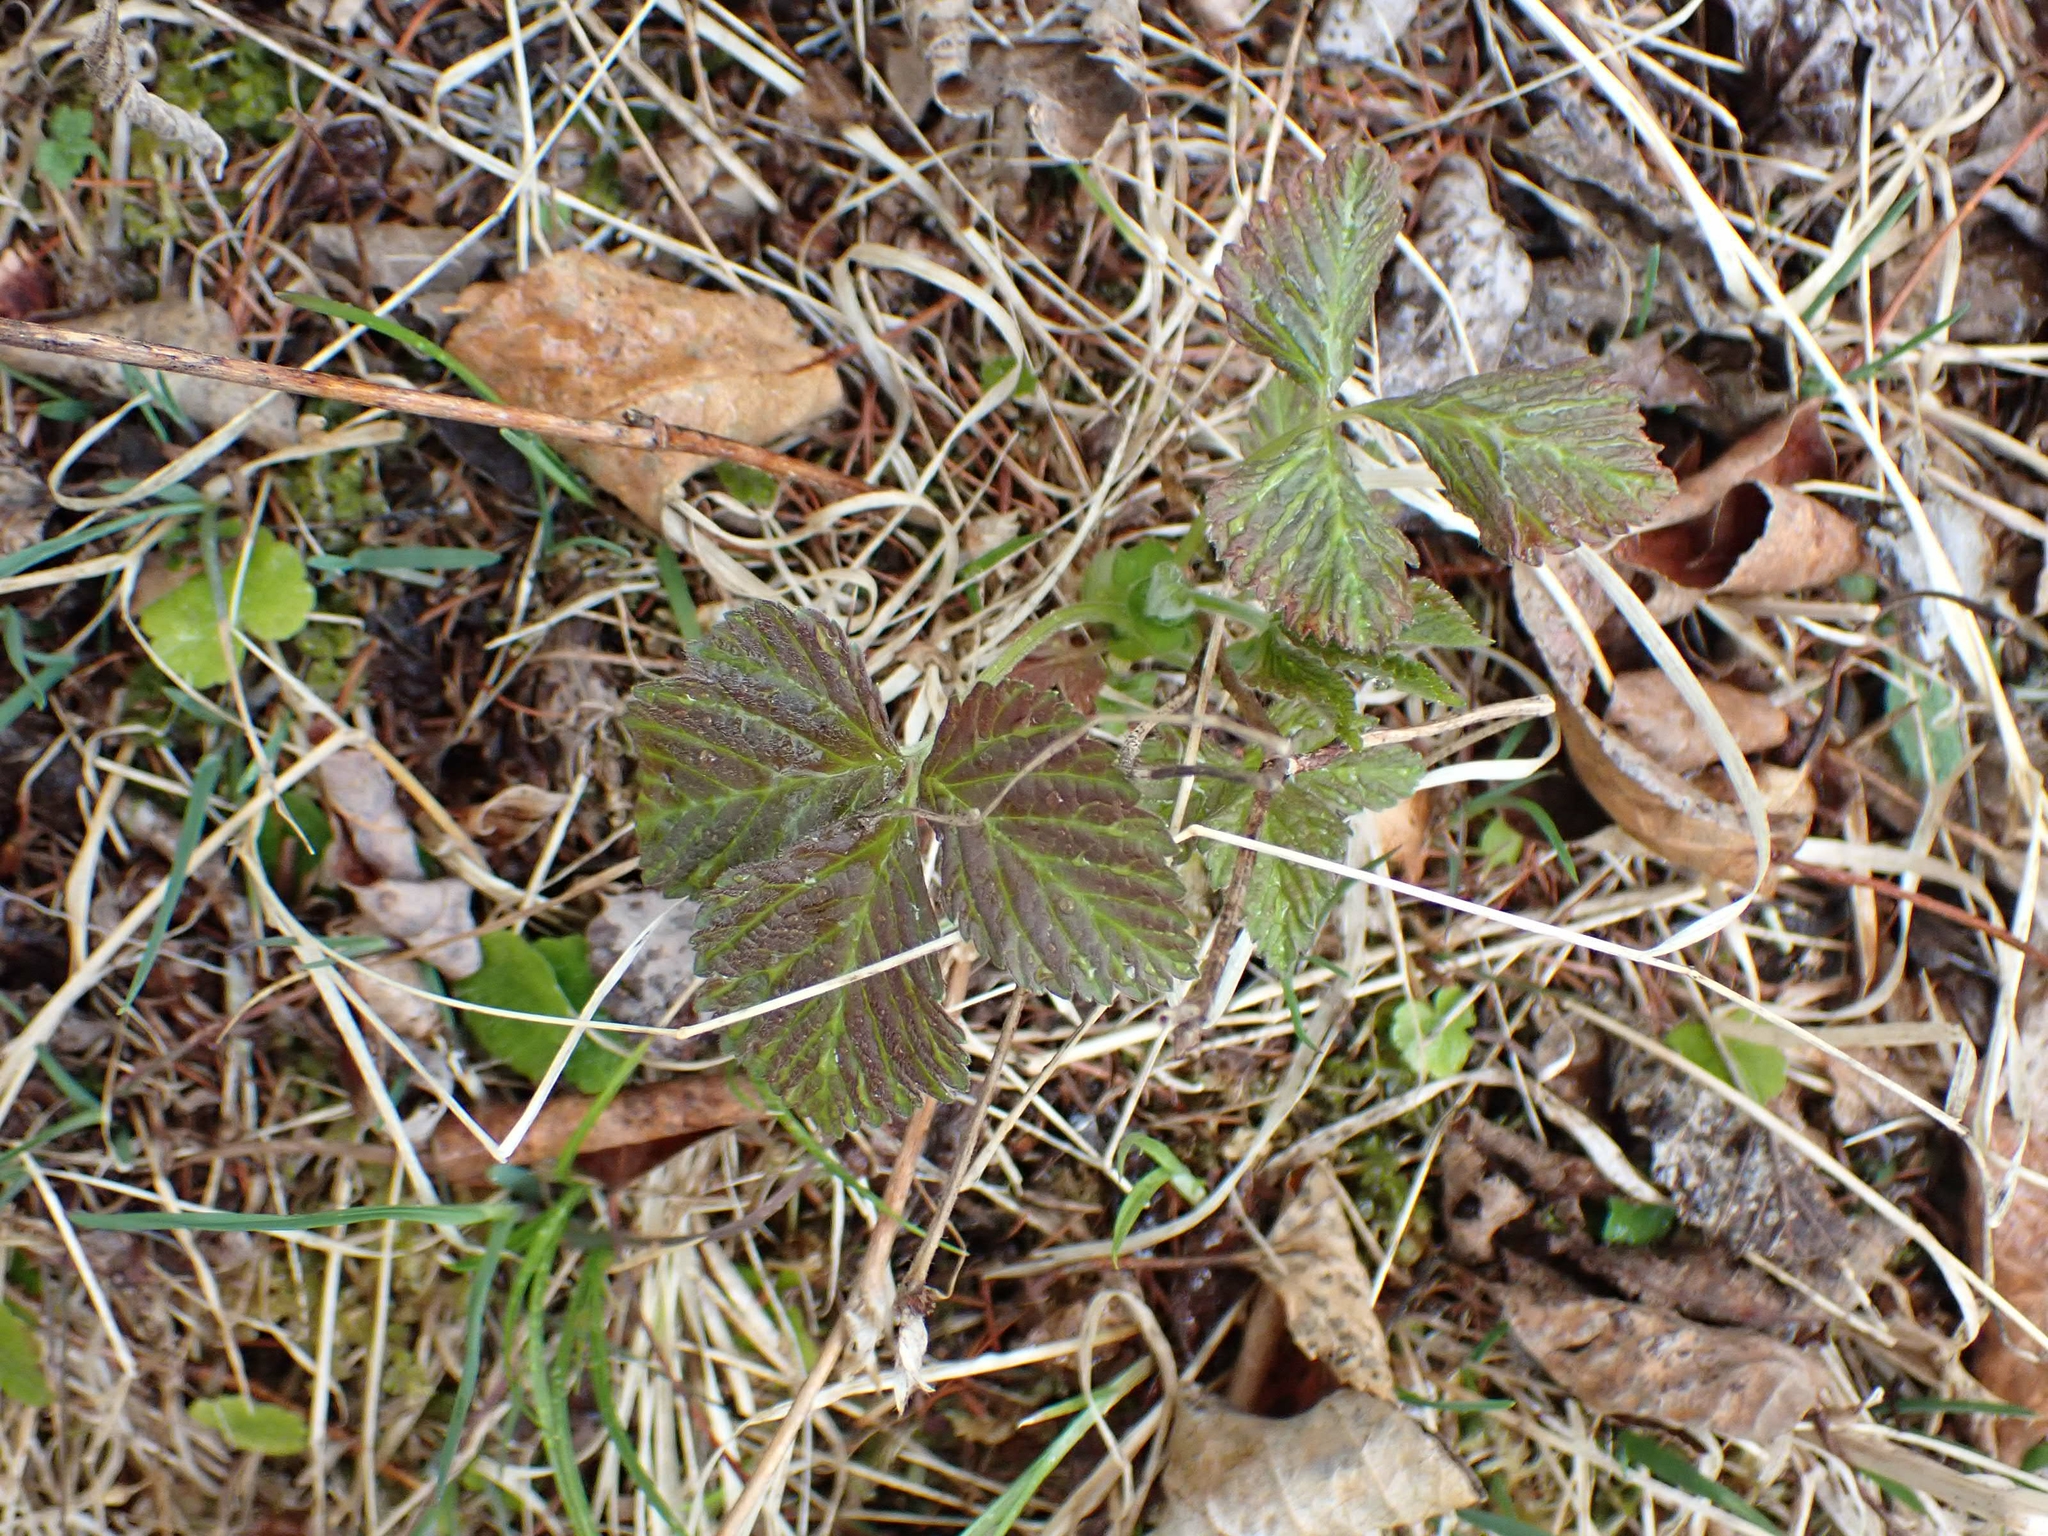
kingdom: Plantae
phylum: Tracheophyta
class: Magnoliopsida
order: Rosales
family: Rosaceae
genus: Rubus
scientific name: Rubus pubescens
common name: Dwarf raspberry
